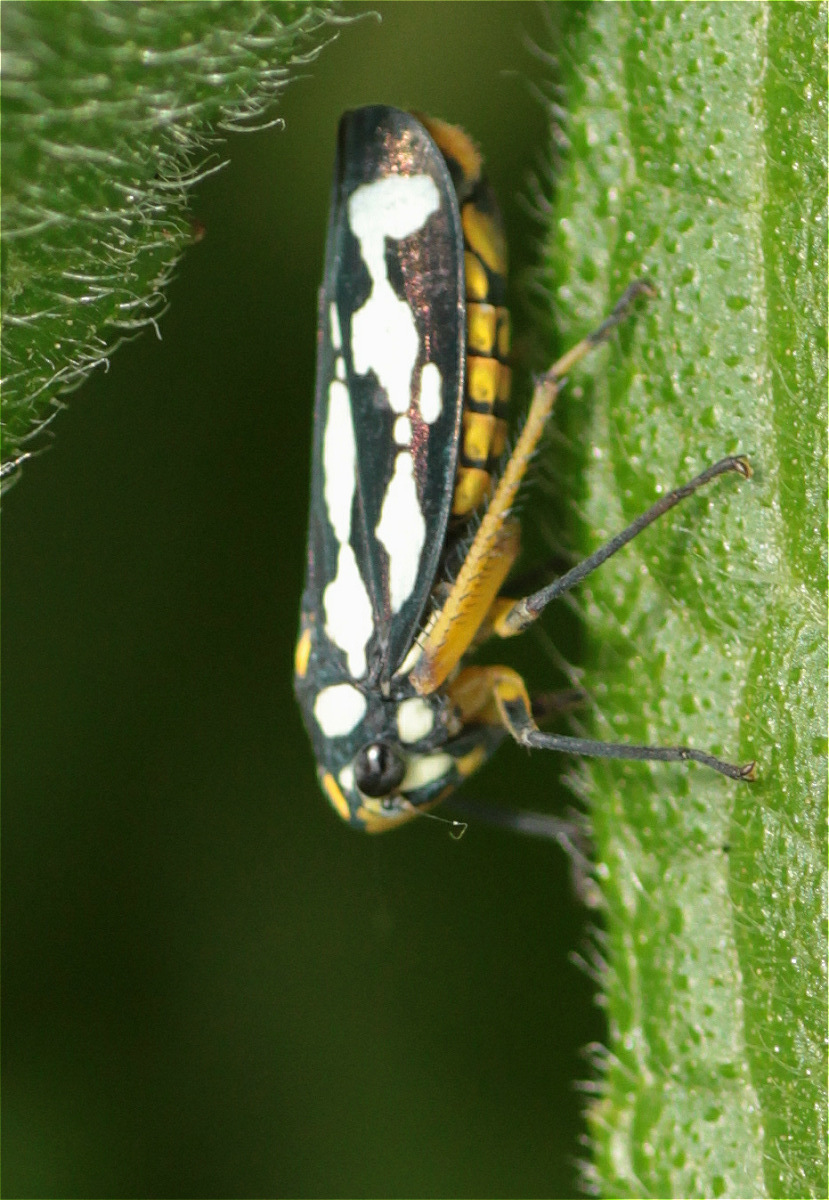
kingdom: Animalia
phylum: Arthropoda
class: Insecta
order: Hemiptera
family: Cicadellidae
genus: Stehlikiana
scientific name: Stehlikiana crassa
